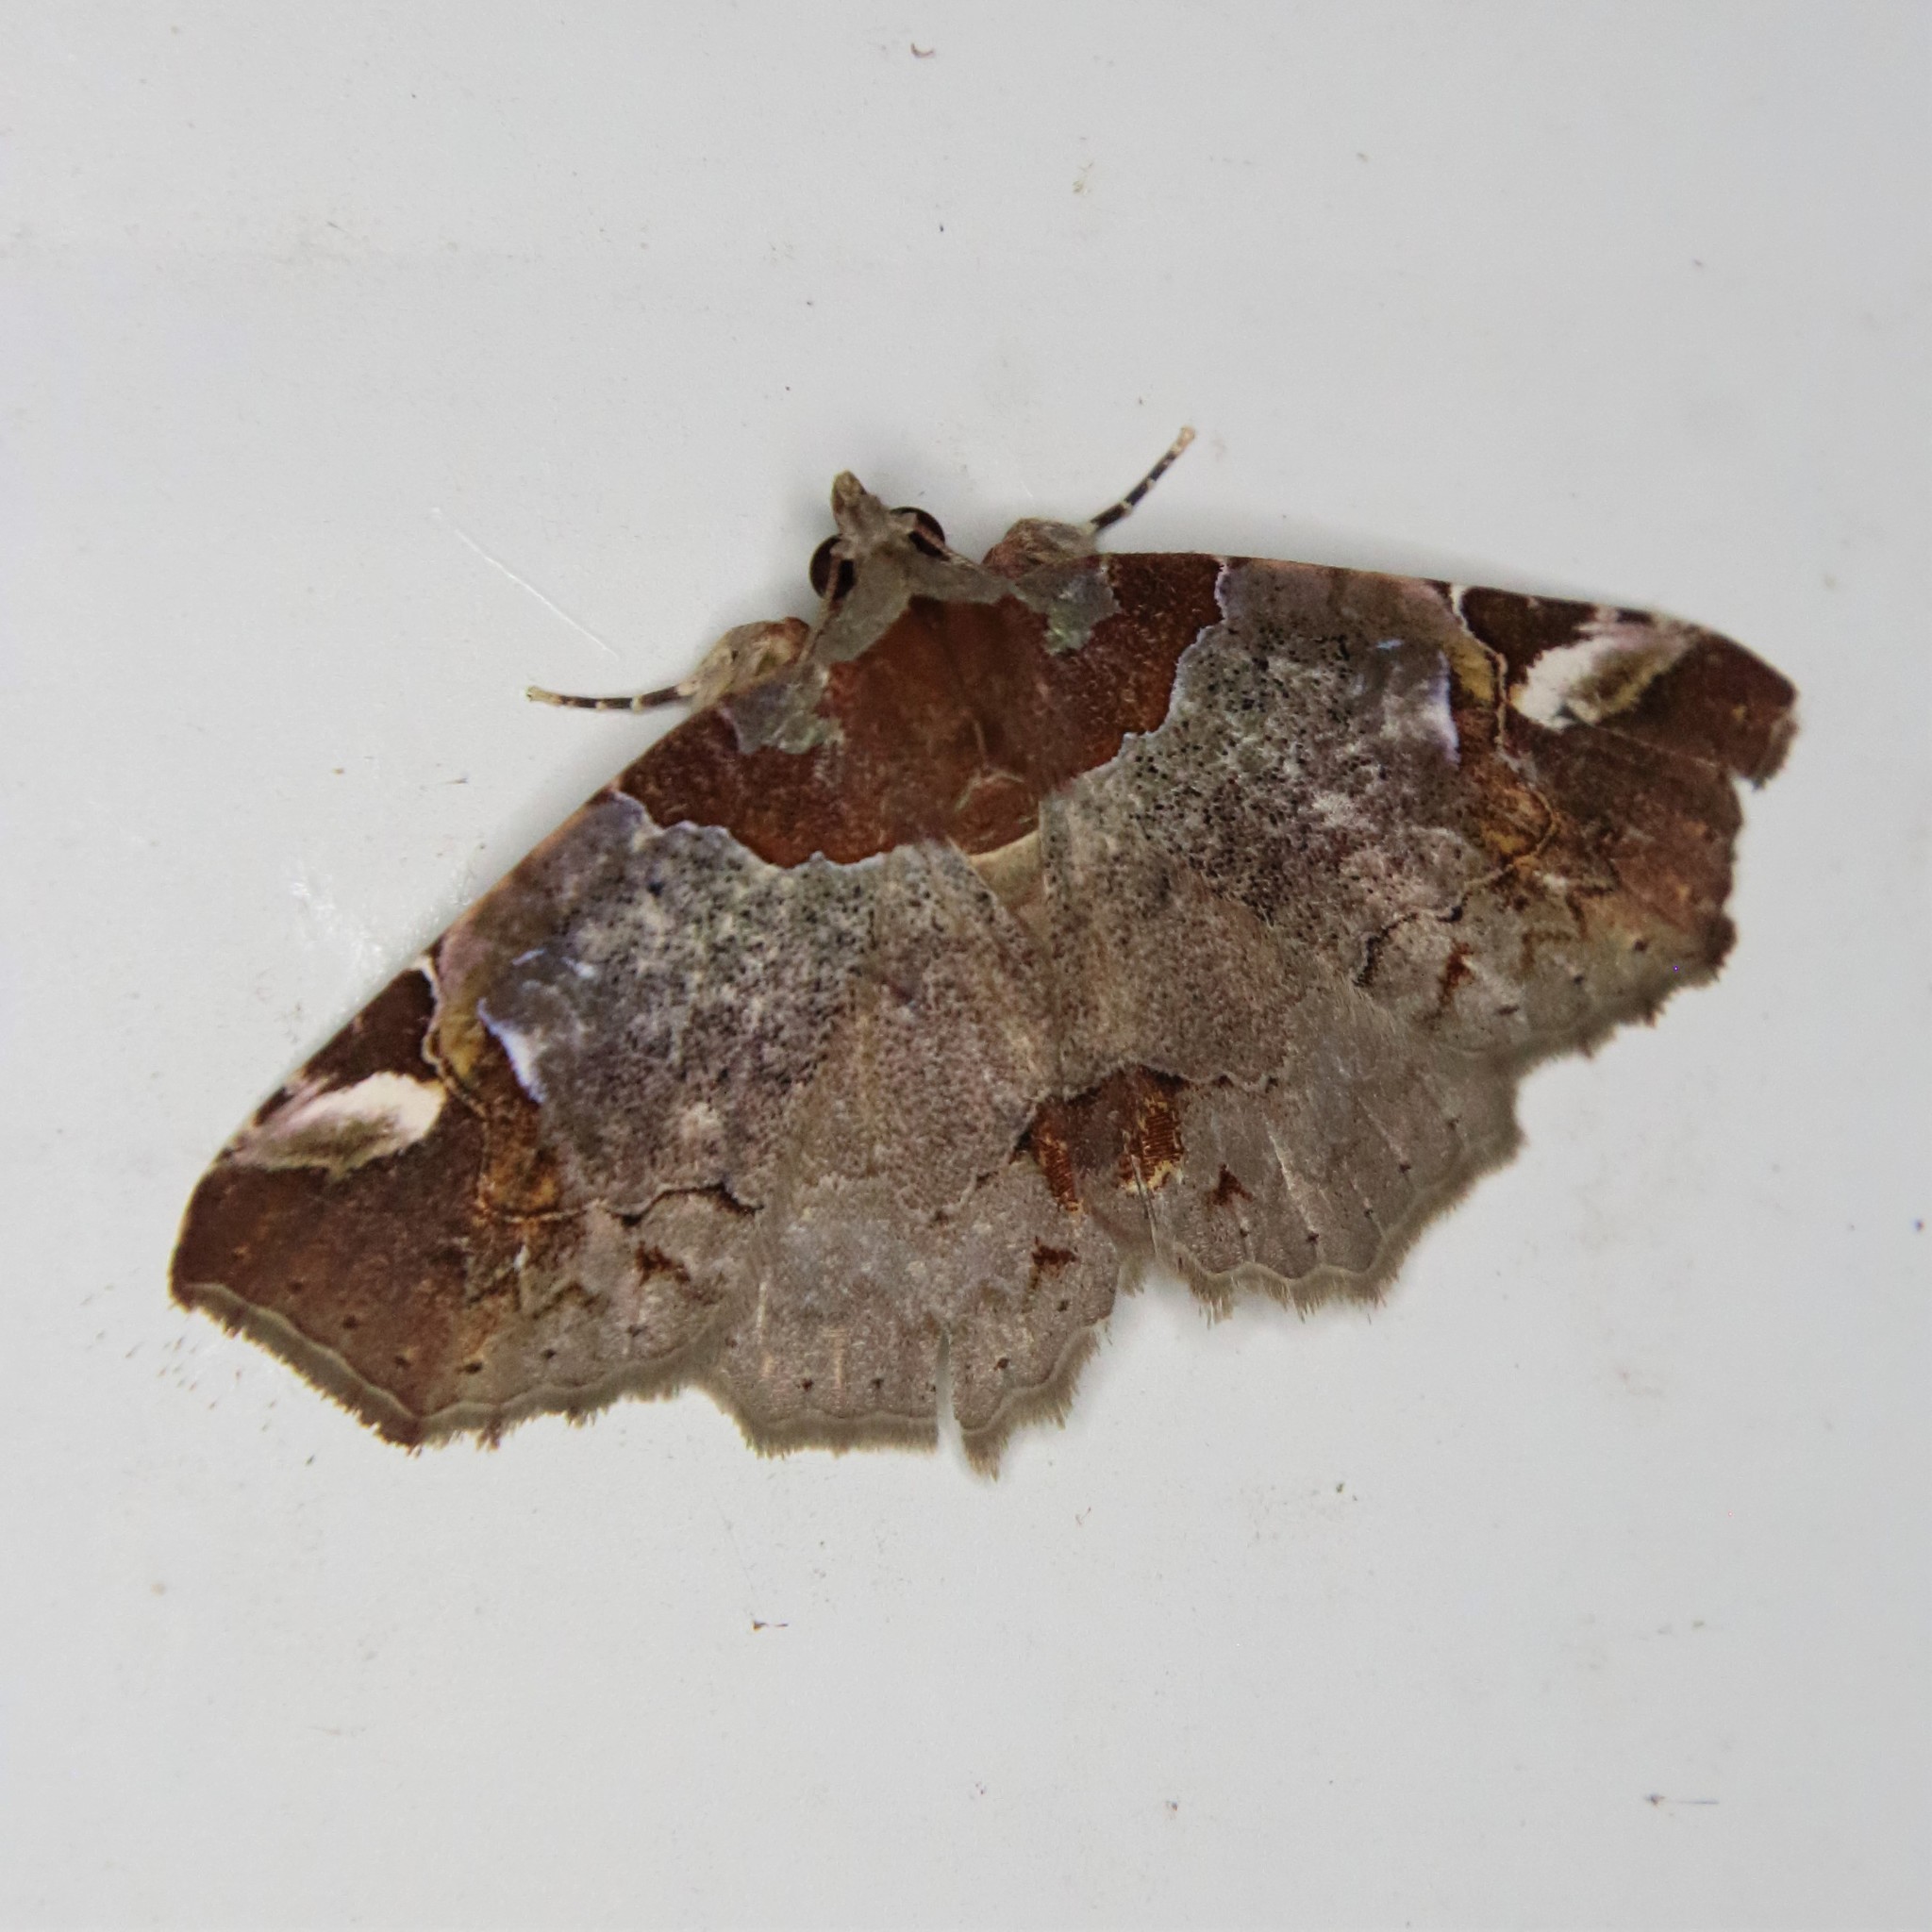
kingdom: Animalia
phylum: Arthropoda
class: Insecta
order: Lepidoptera
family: Erebidae
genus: Tamba
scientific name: Tamba lahera
